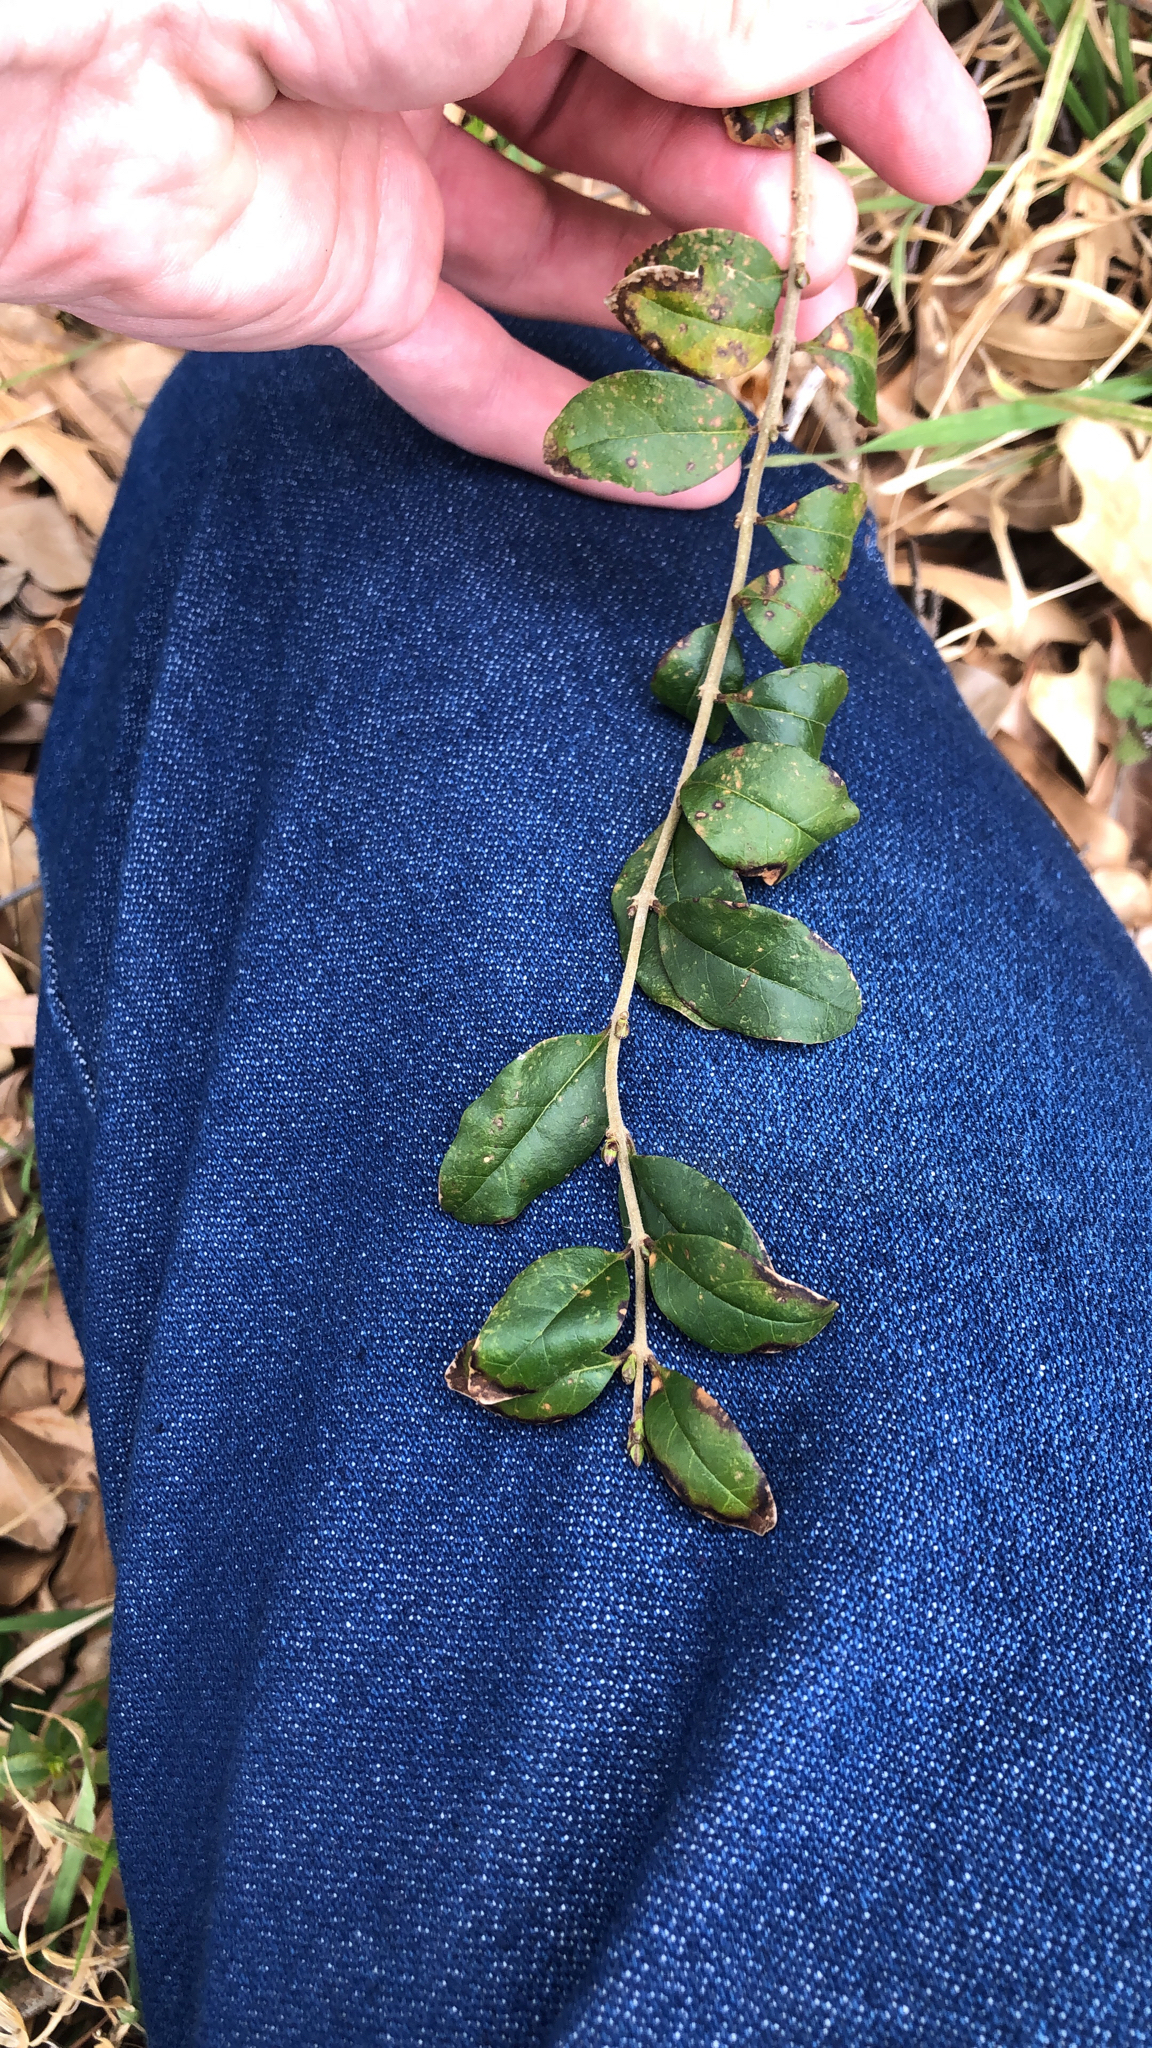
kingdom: Plantae
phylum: Tracheophyta
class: Magnoliopsida
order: Lamiales
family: Oleaceae
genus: Ligustrum
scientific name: Ligustrum sinense
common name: Chinese privet
